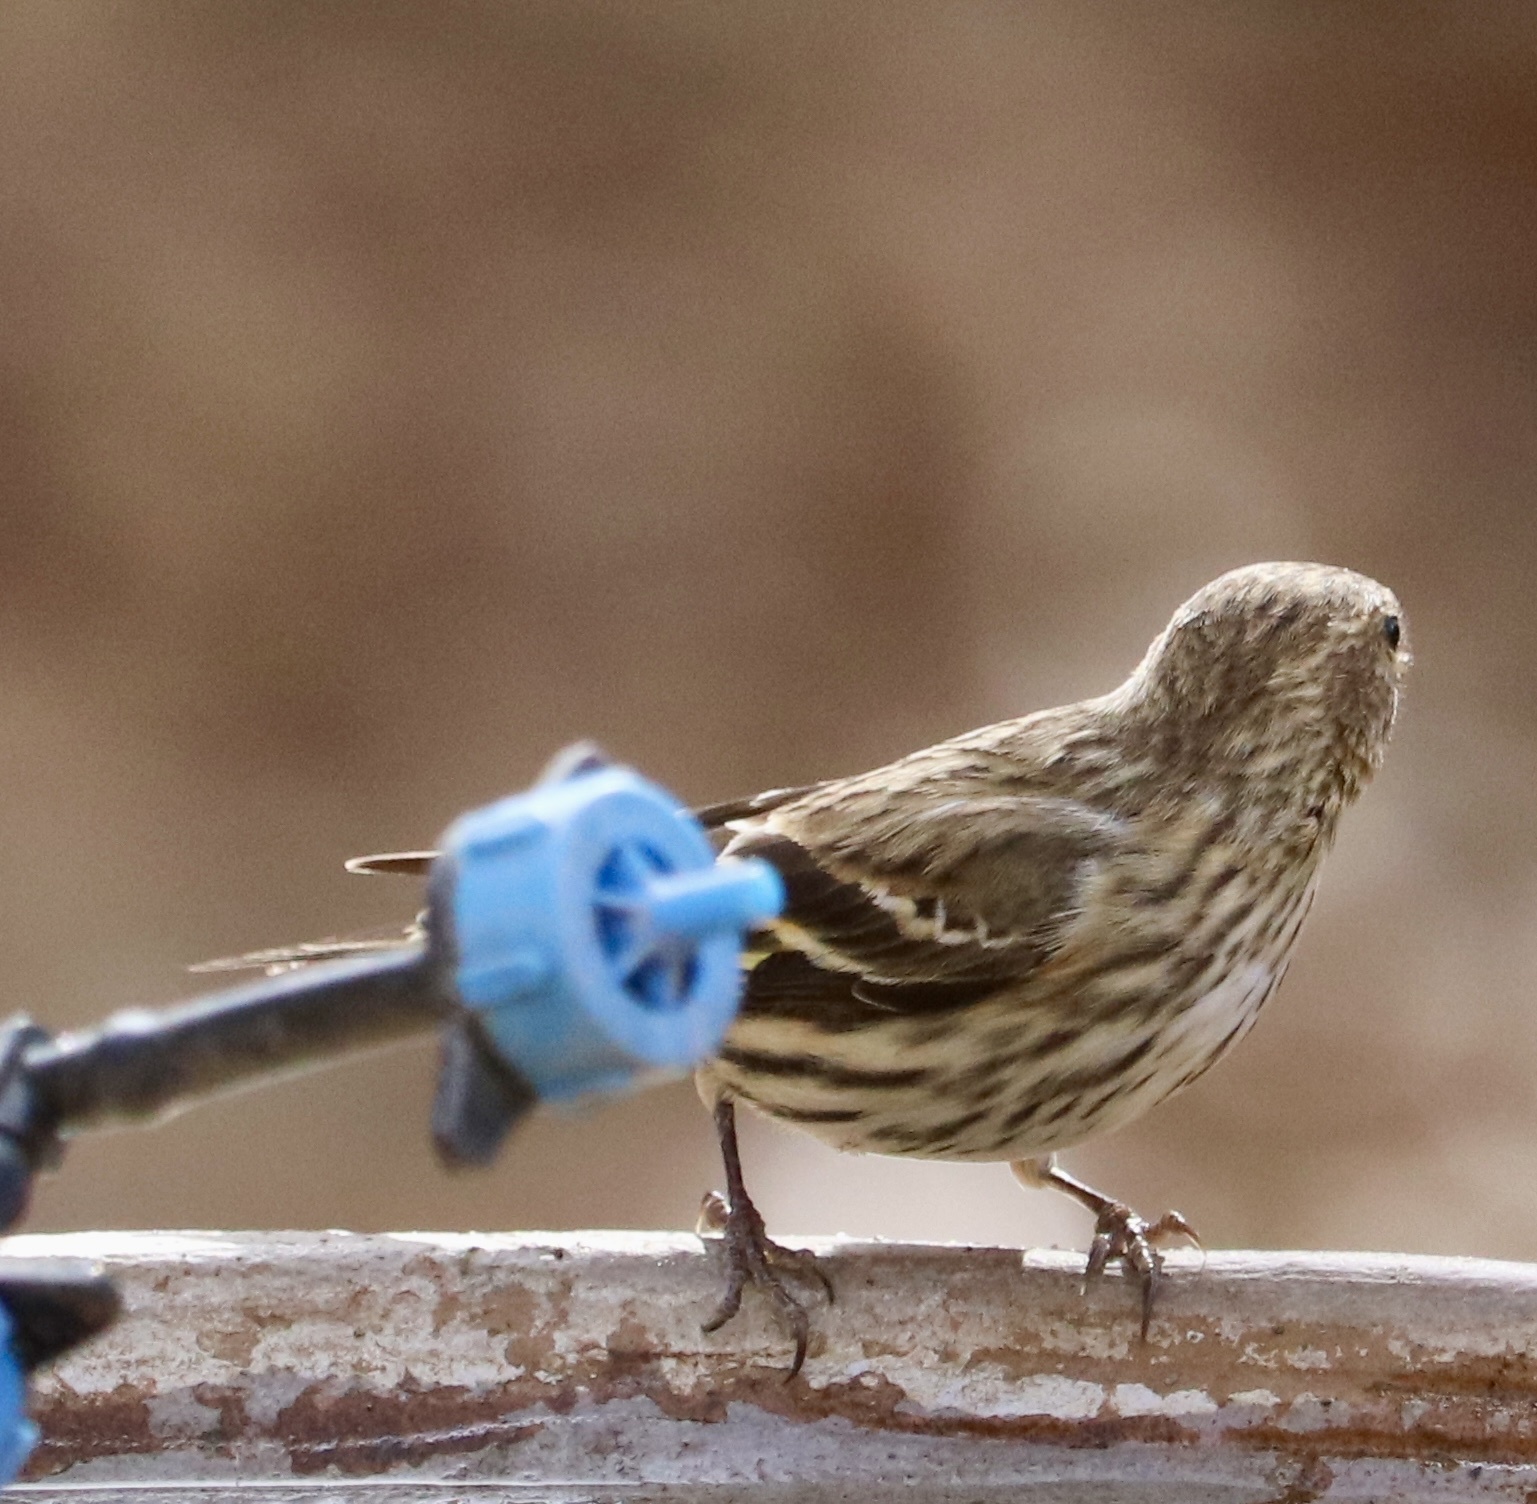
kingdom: Animalia
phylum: Chordata
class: Aves
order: Passeriformes
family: Fringillidae
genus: Spinus
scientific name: Spinus pinus
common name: Pine siskin
